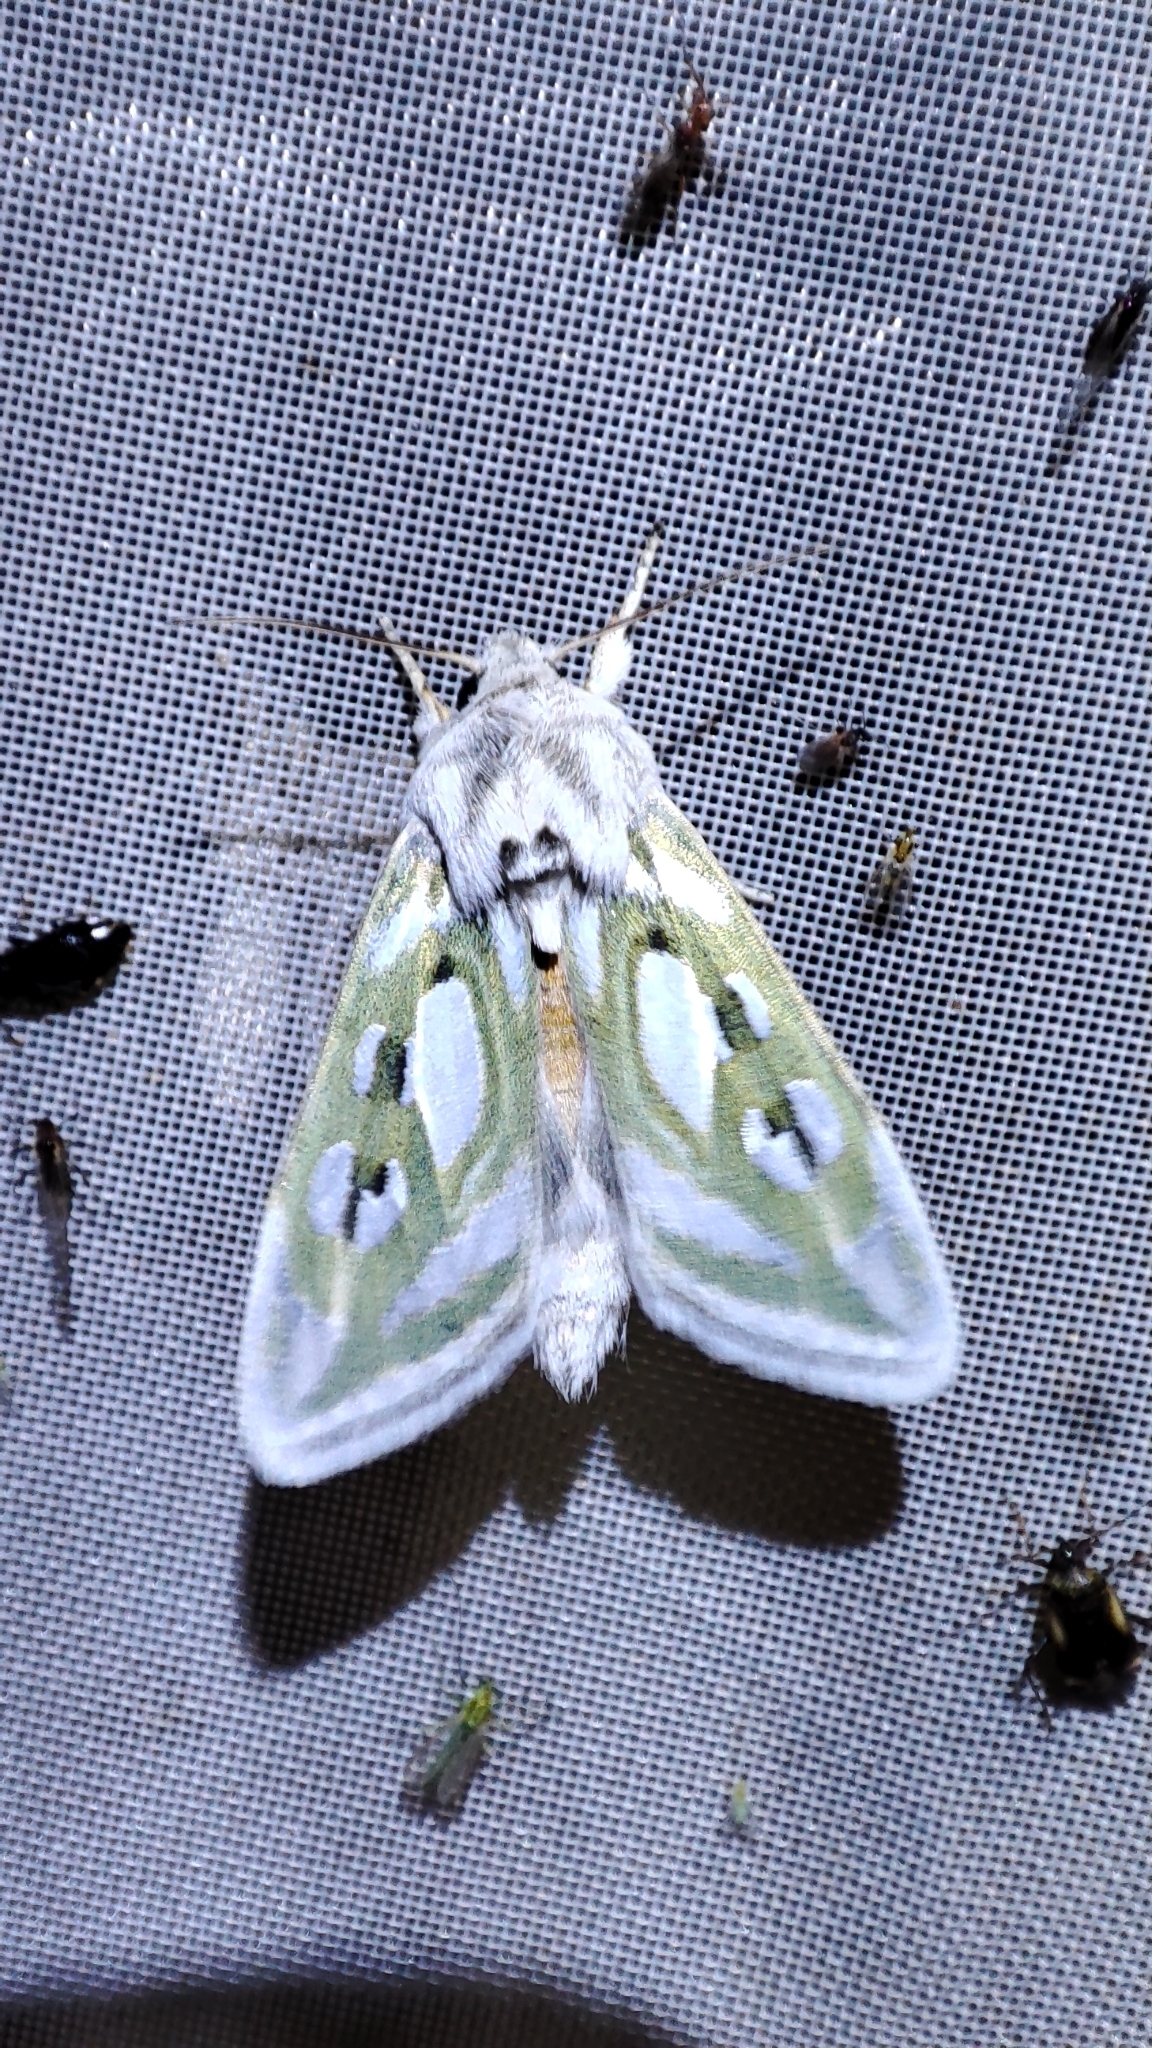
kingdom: Animalia
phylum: Arthropoda
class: Insecta
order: Lepidoptera
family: Noctuidae
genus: Cucullia
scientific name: Cucullia argentea
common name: Green silver-spangled shark
